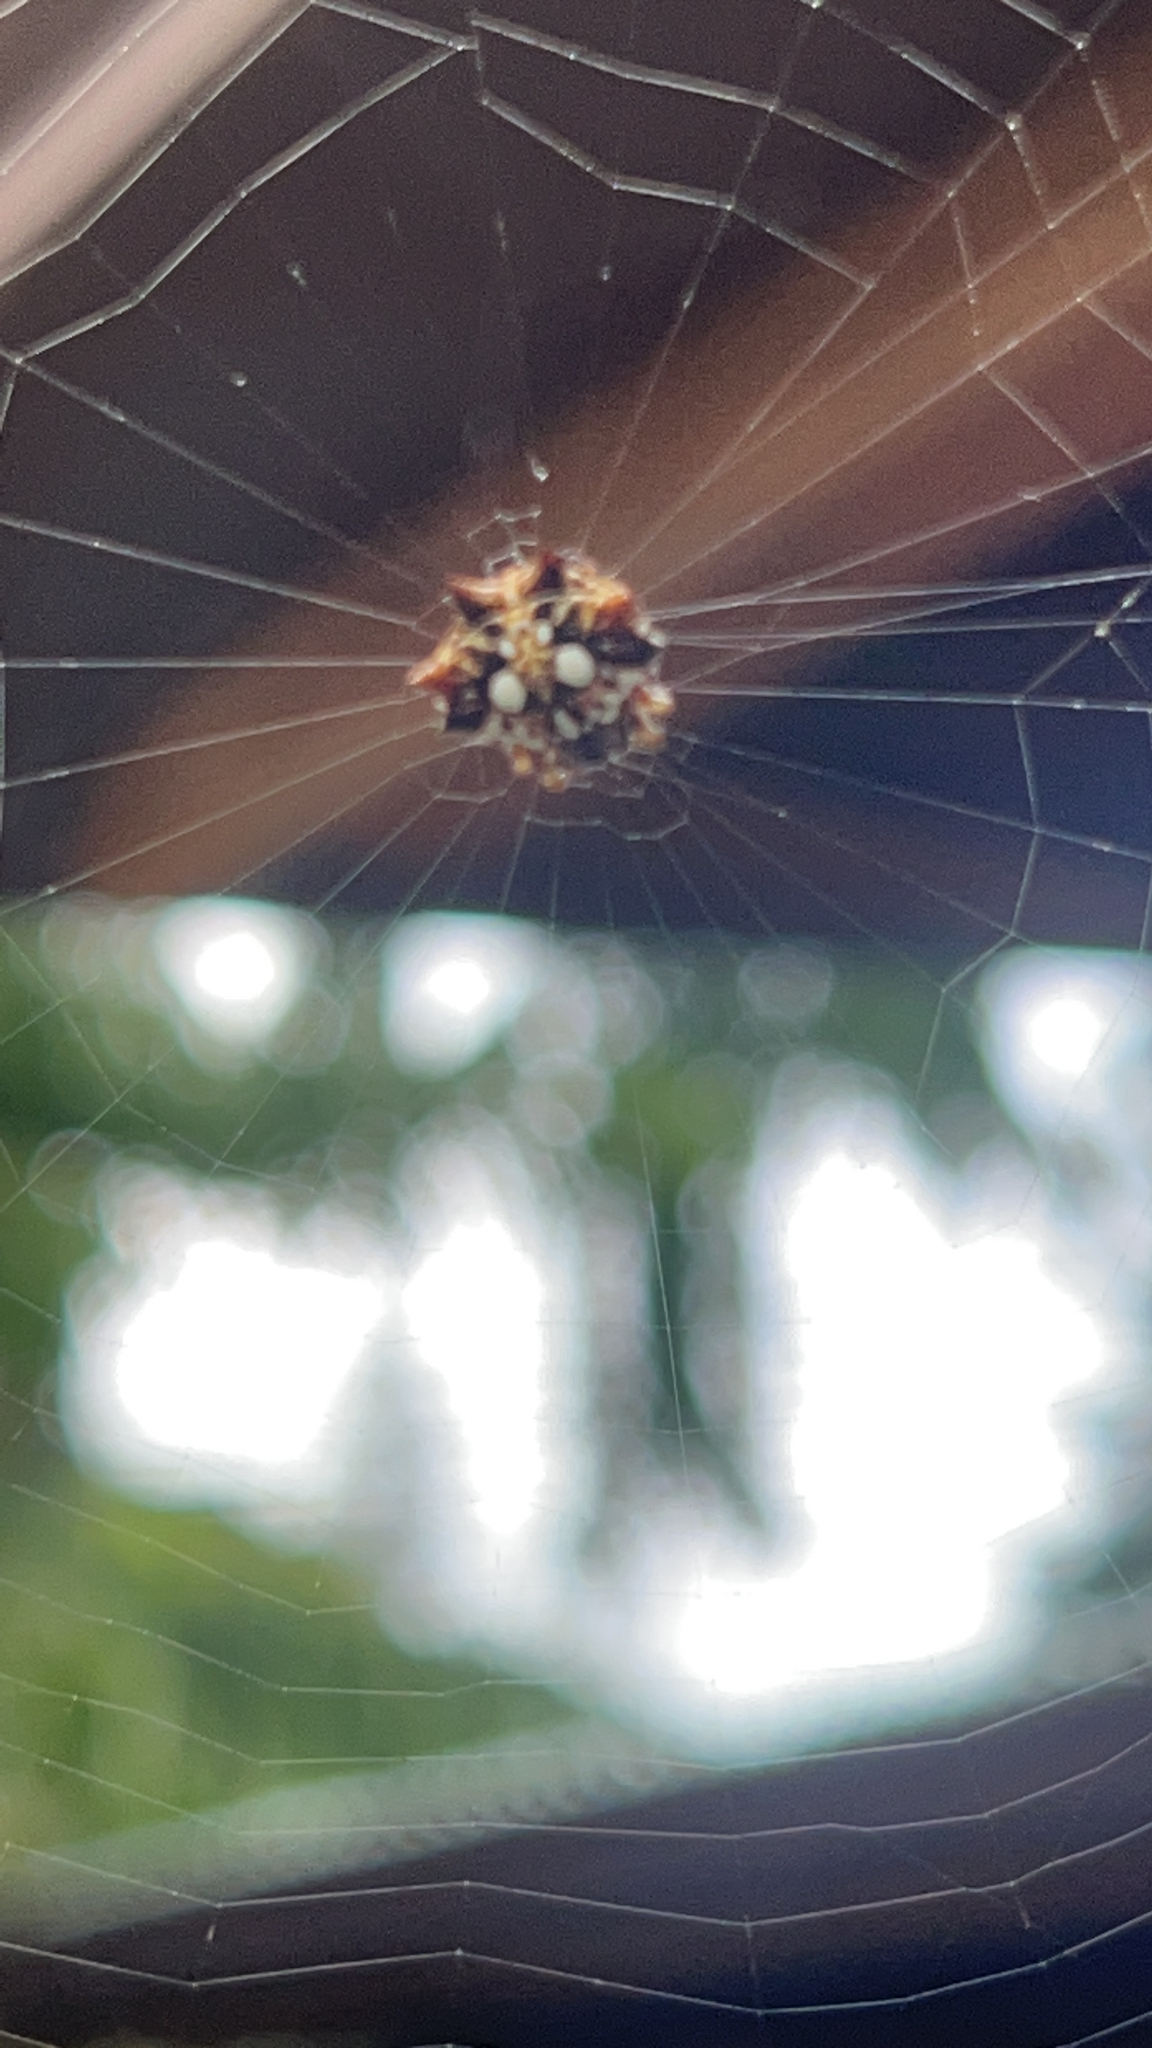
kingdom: Animalia
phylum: Arthropoda
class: Arachnida
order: Araneae
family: Araneidae
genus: Thelacantha
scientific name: Thelacantha brevispina
